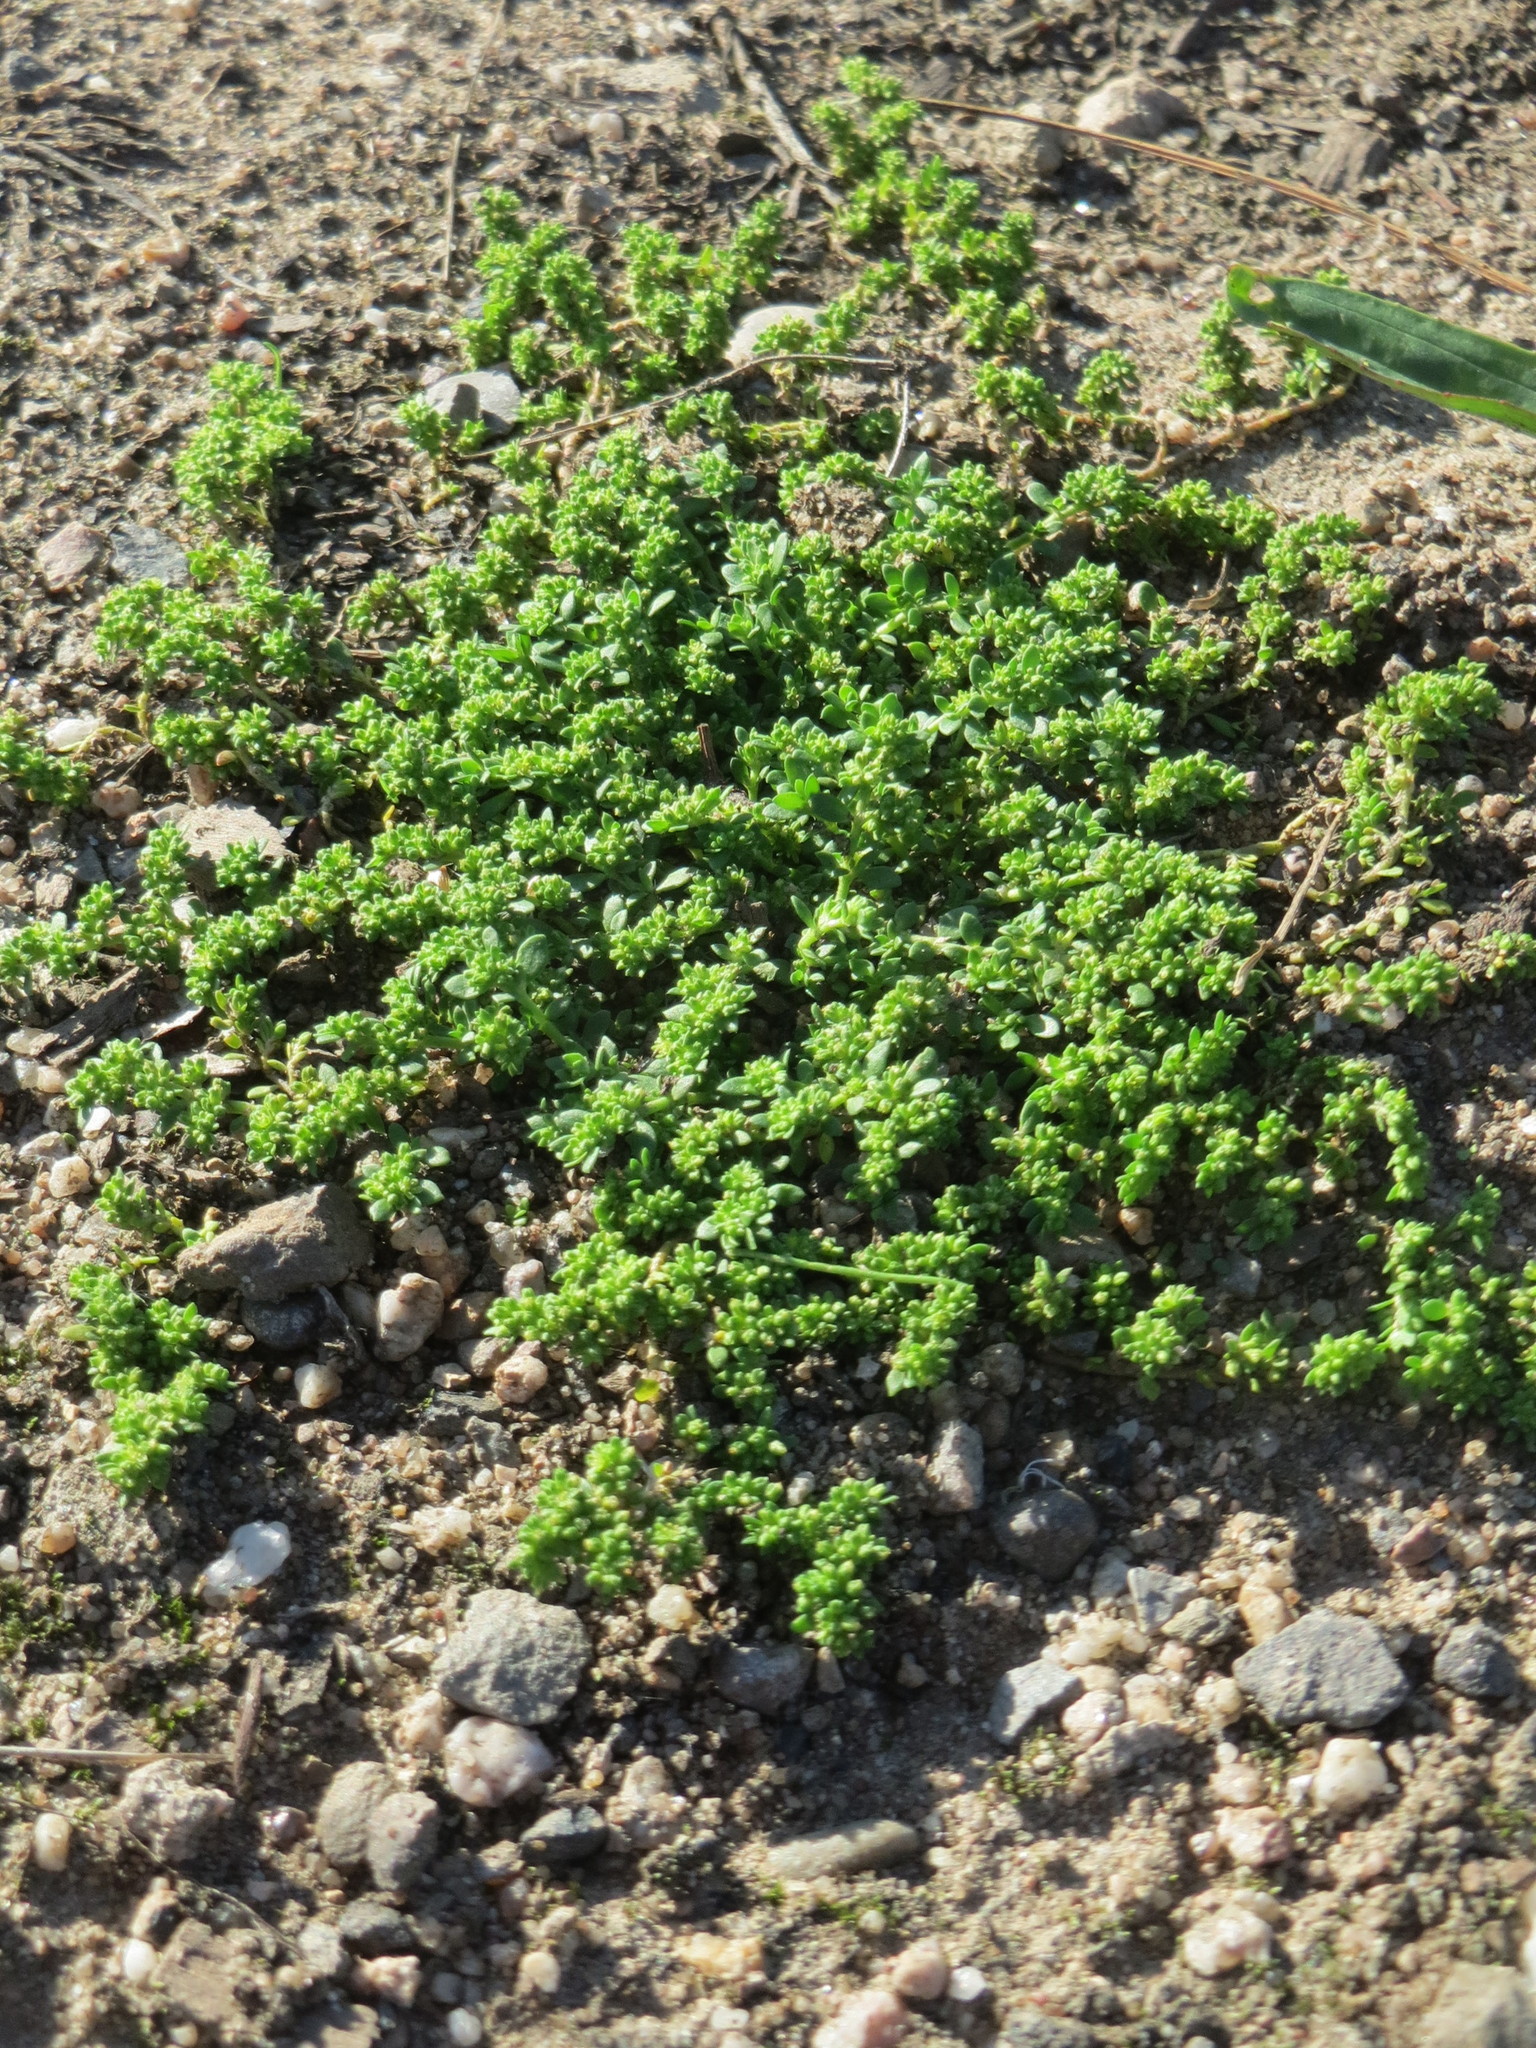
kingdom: Plantae
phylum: Tracheophyta
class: Magnoliopsida
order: Caryophyllales
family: Caryophyllaceae
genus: Herniaria
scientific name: Herniaria glabra
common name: Smooth rupturewort
